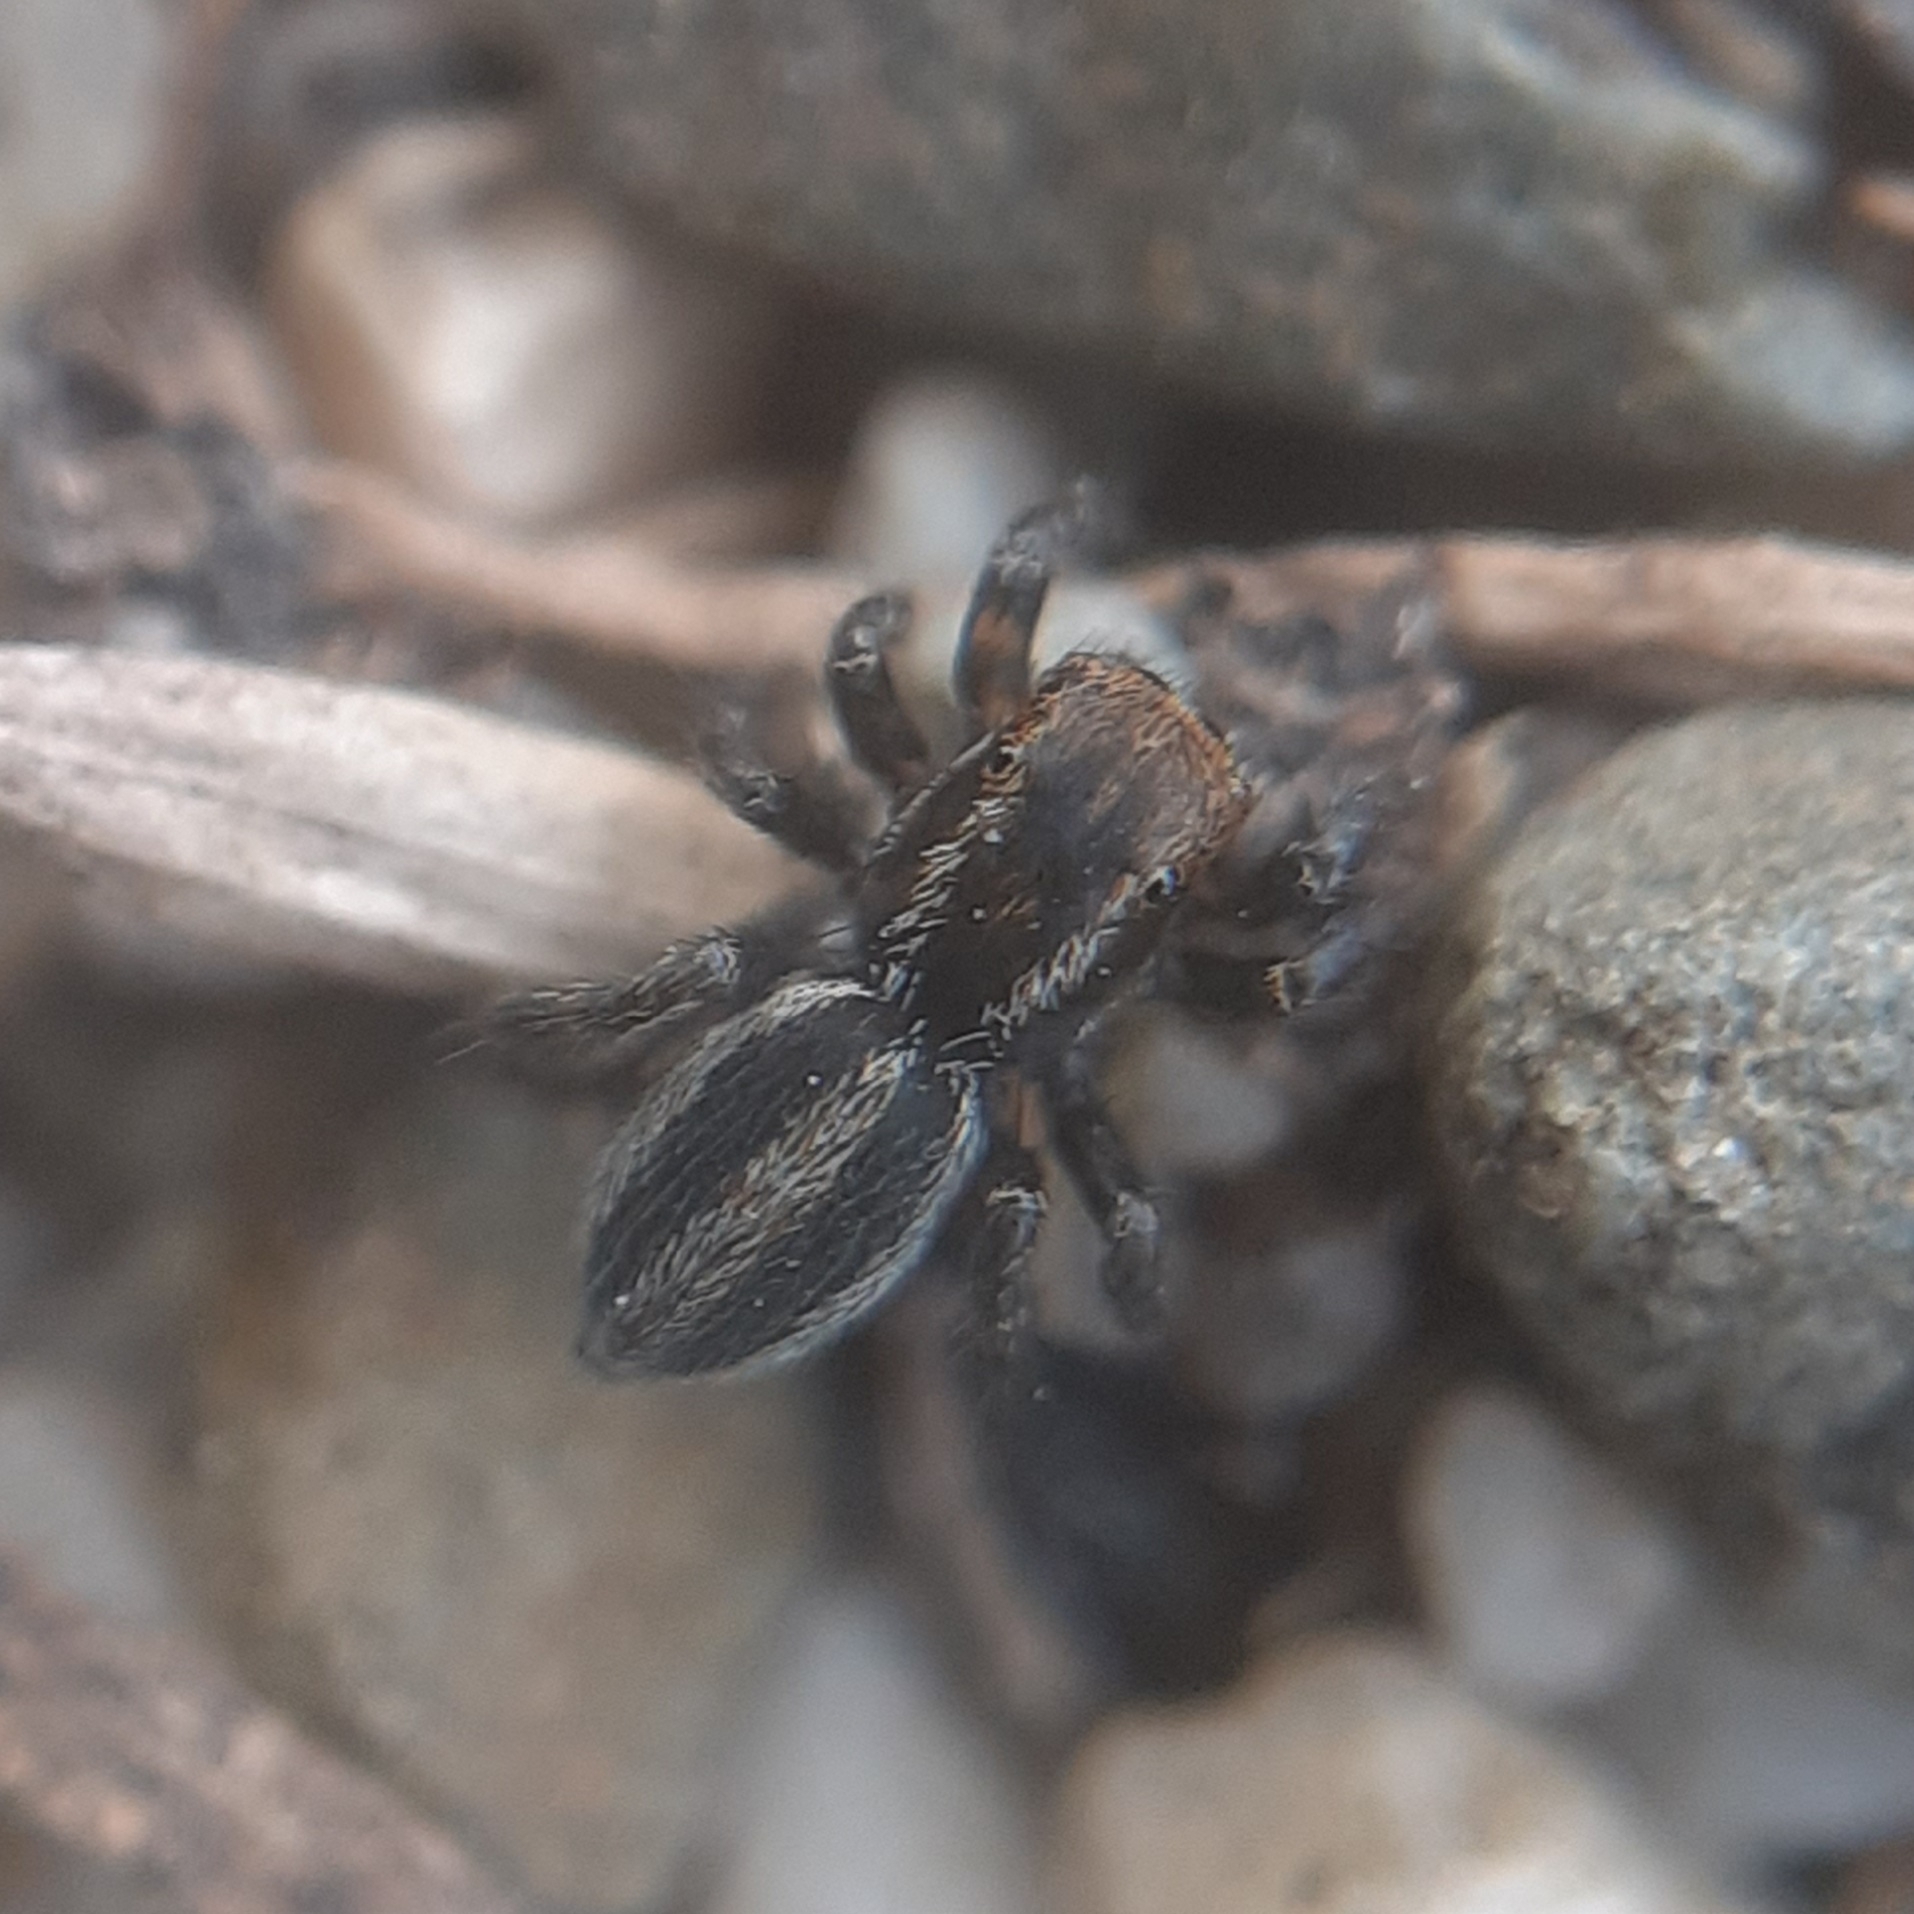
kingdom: Animalia
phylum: Arthropoda
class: Arachnida
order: Araneae
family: Salticidae
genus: Phlegra
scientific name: Phlegra fasciata
